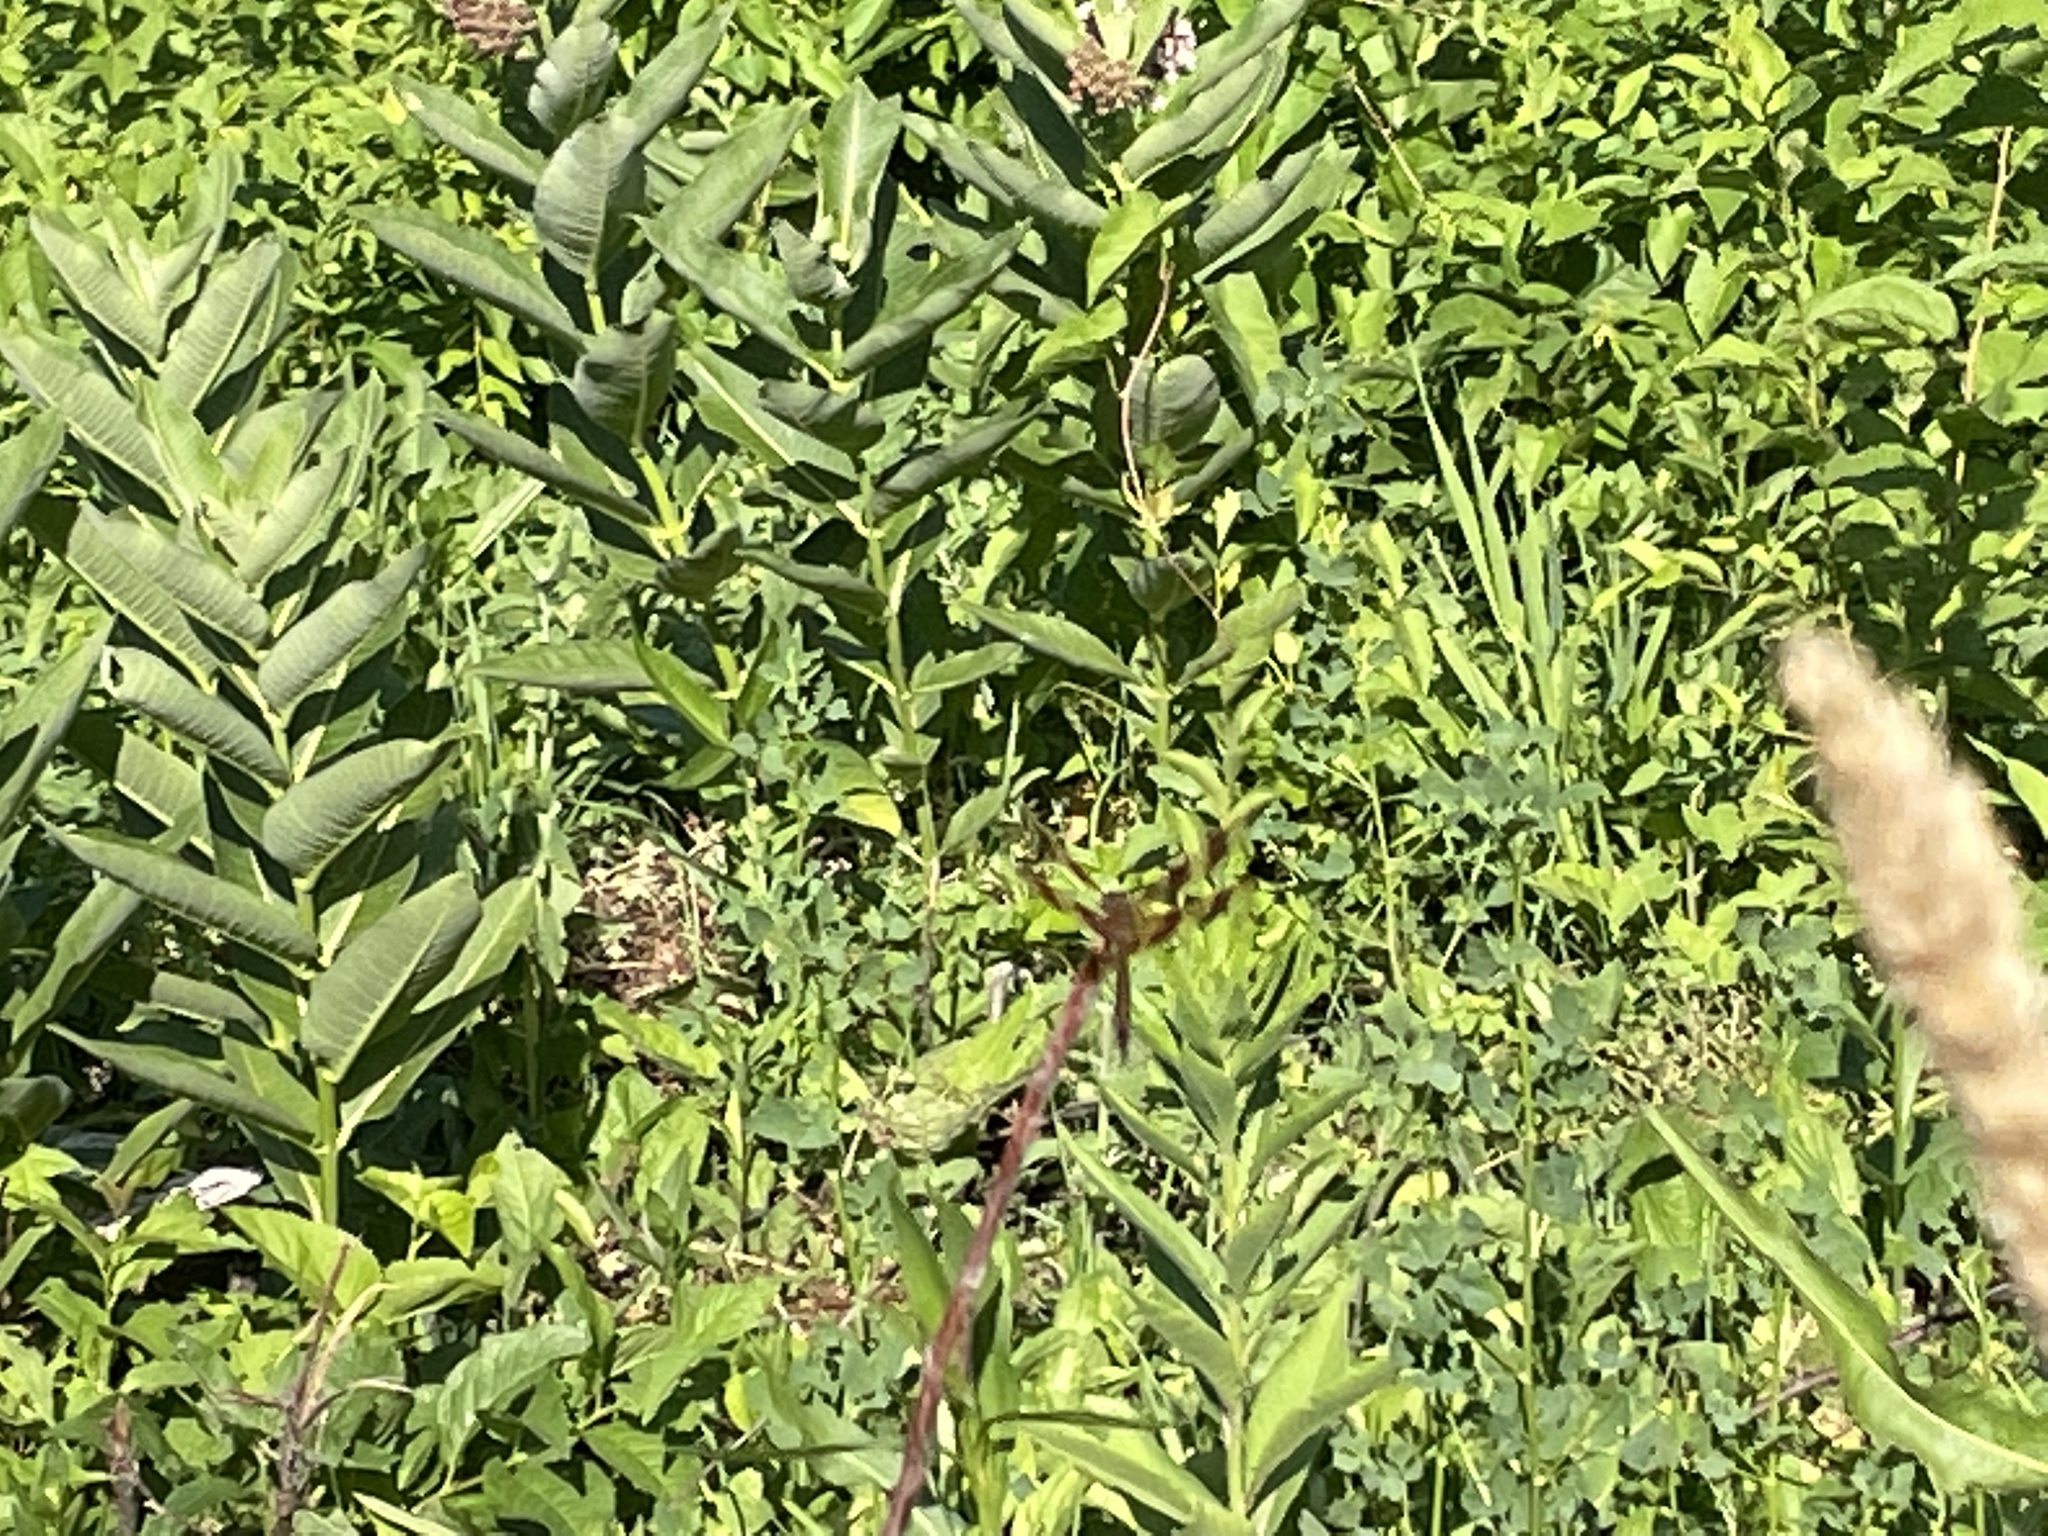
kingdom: Animalia
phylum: Arthropoda
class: Insecta
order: Odonata
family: Libellulidae
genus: Celithemis
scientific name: Celithemis eponina
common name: Halloween pennant
